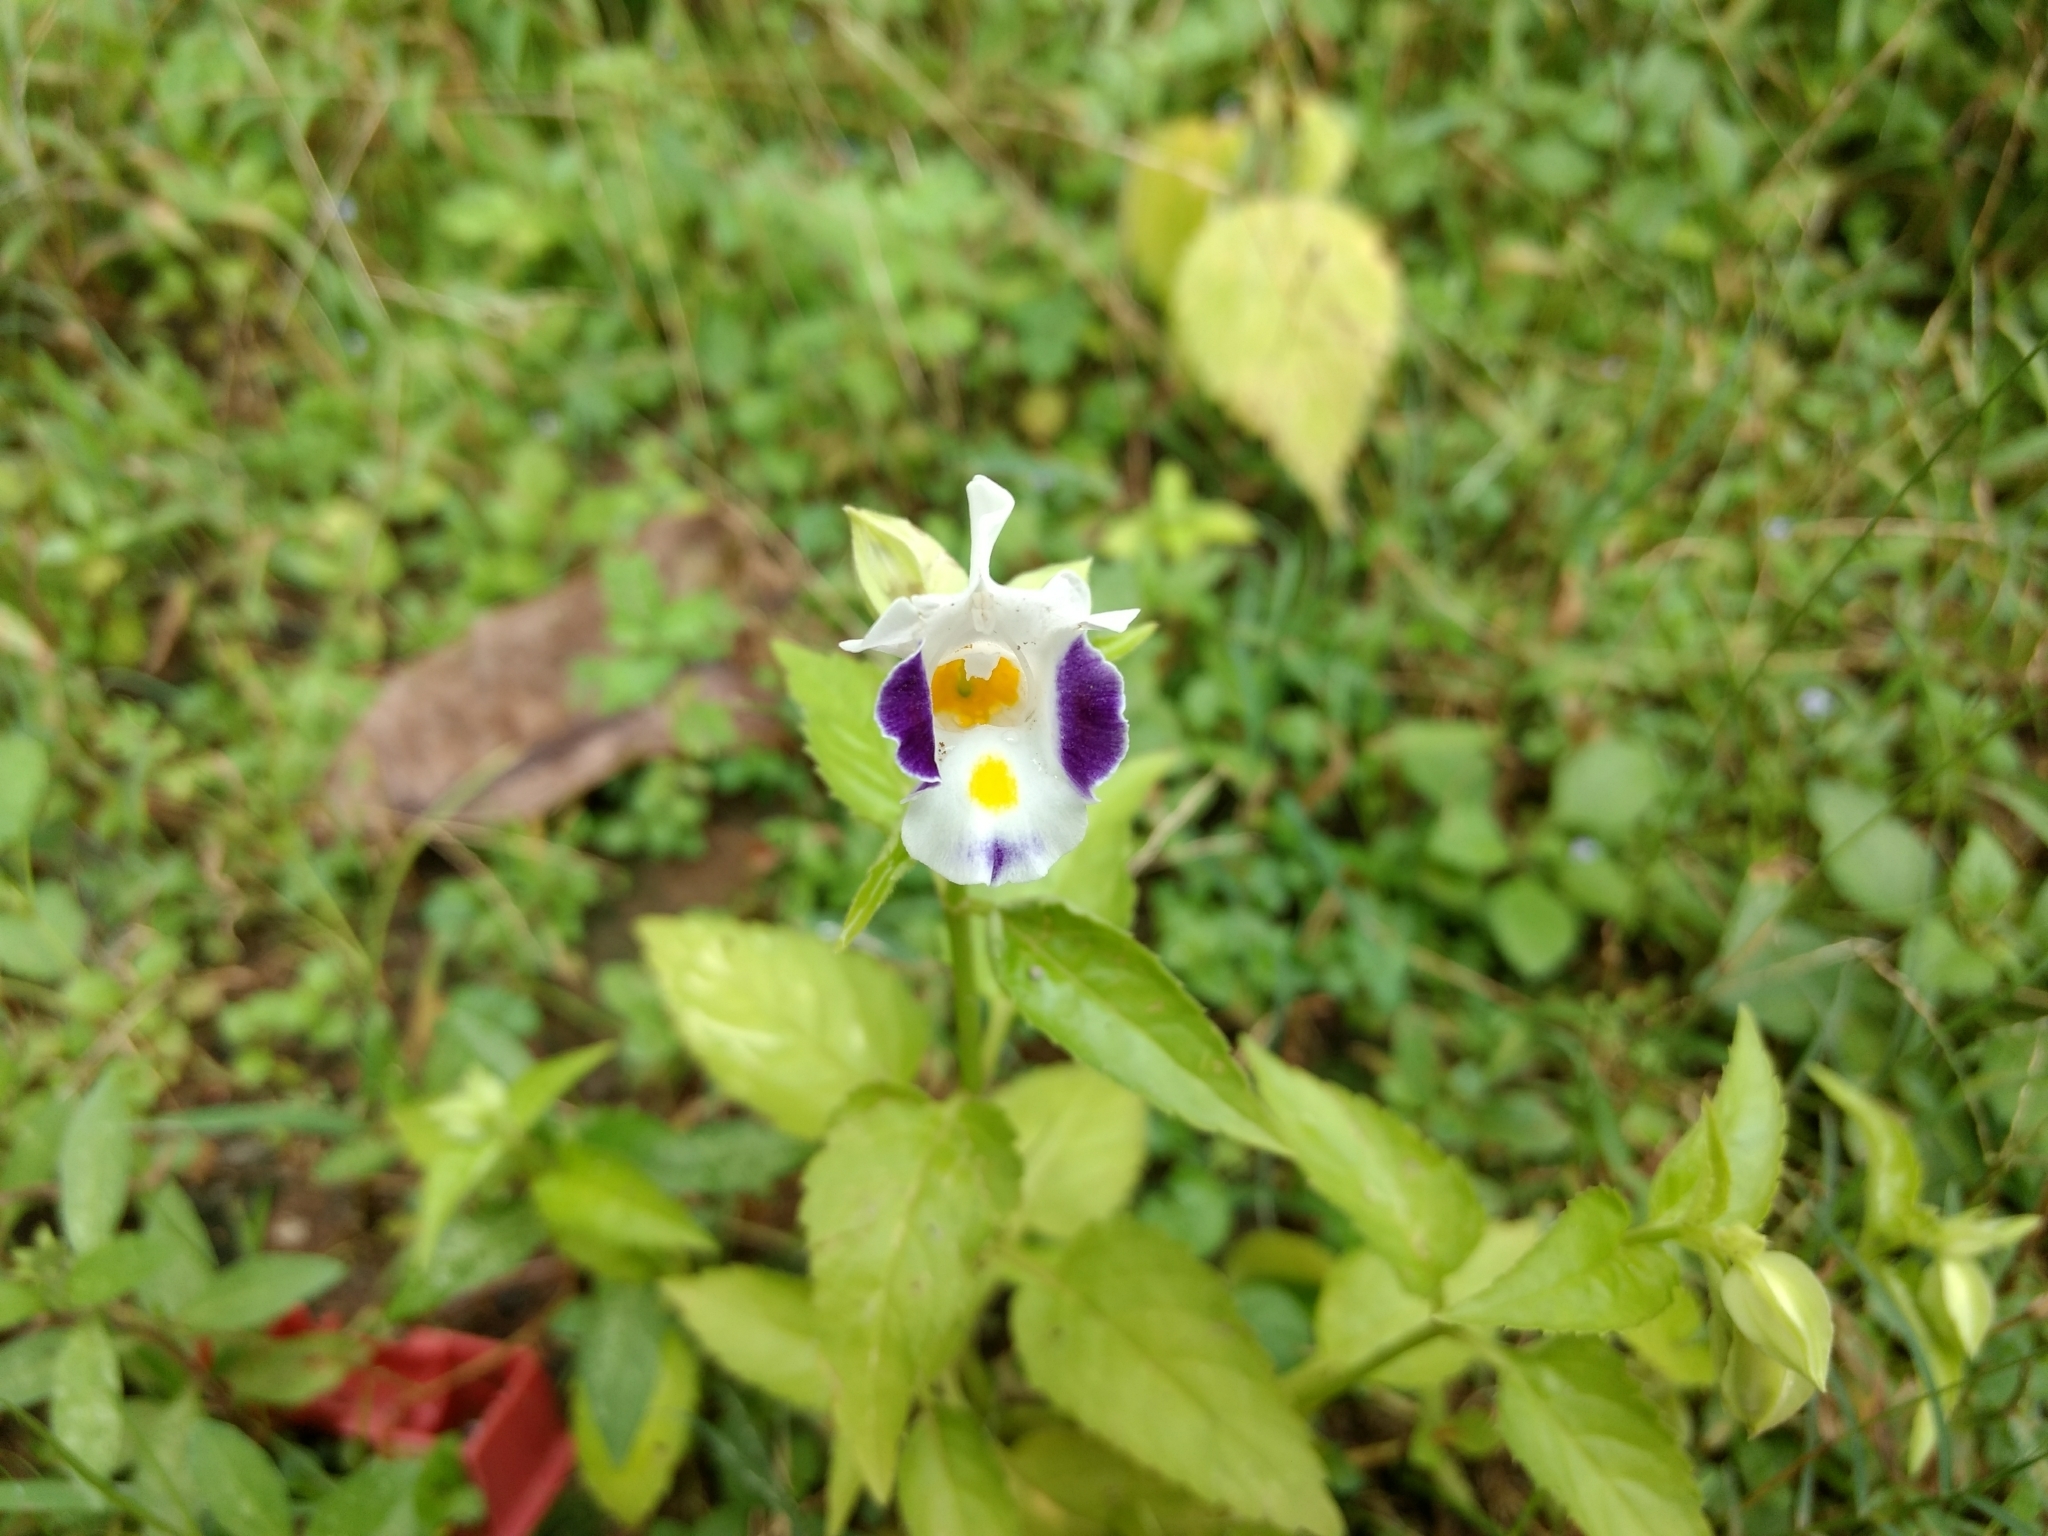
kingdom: Plantae
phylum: Tracheophyta
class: Magnoliopsida
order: Lamiales
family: Linderniaceae
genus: Torenia
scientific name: Torenia fournieri
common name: Bluewings
